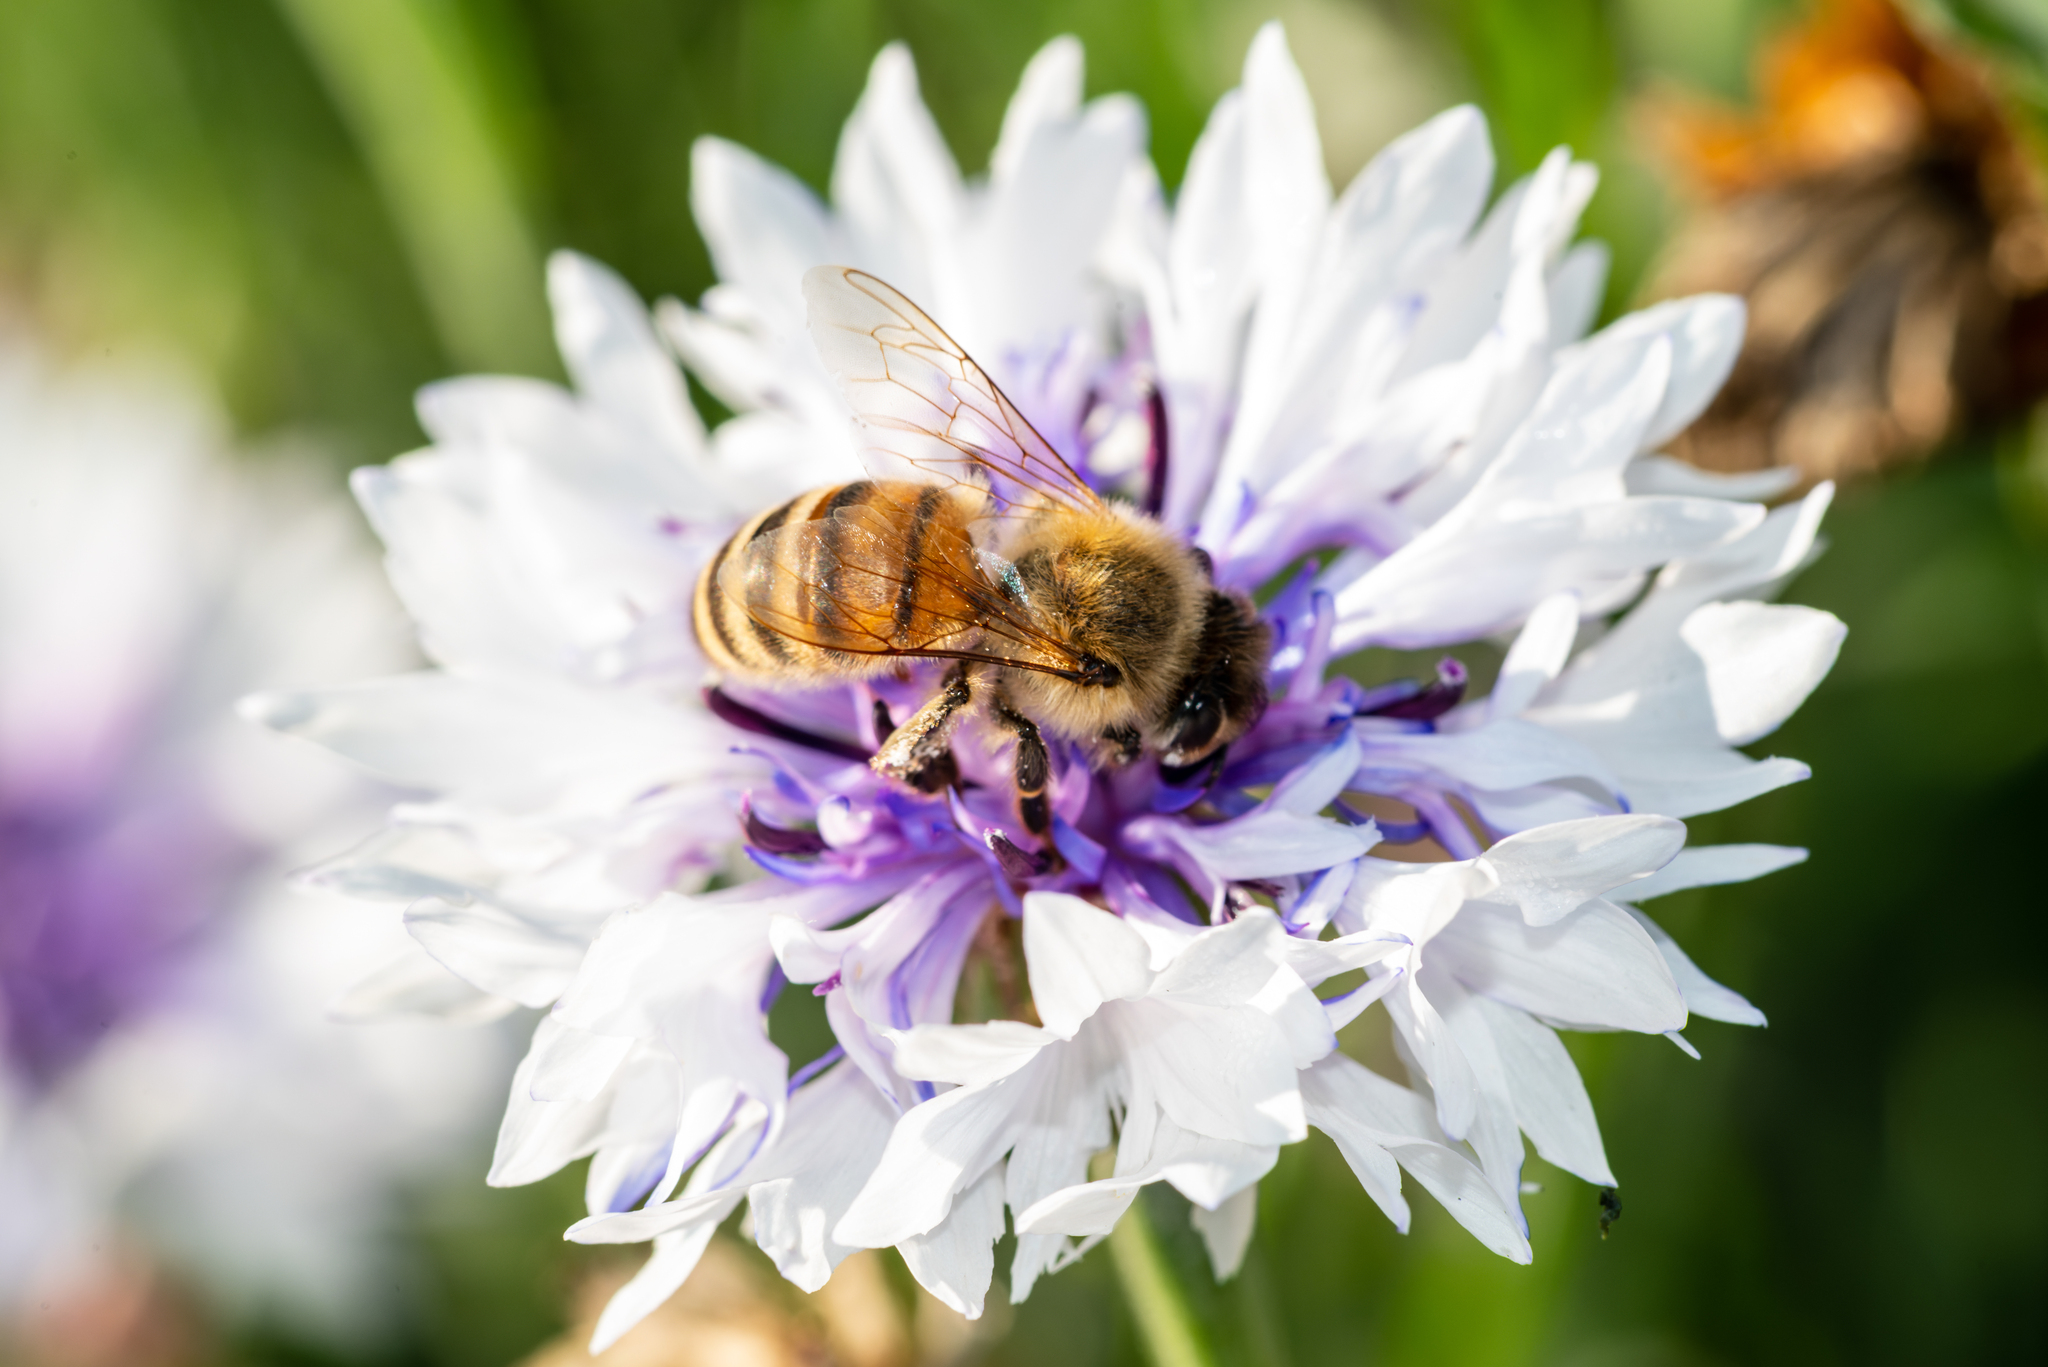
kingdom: Animalia
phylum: Arthropoda
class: Insecta
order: Hymenoptera
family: Apidae
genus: Apis
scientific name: Apis mellifera
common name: Honey bee
